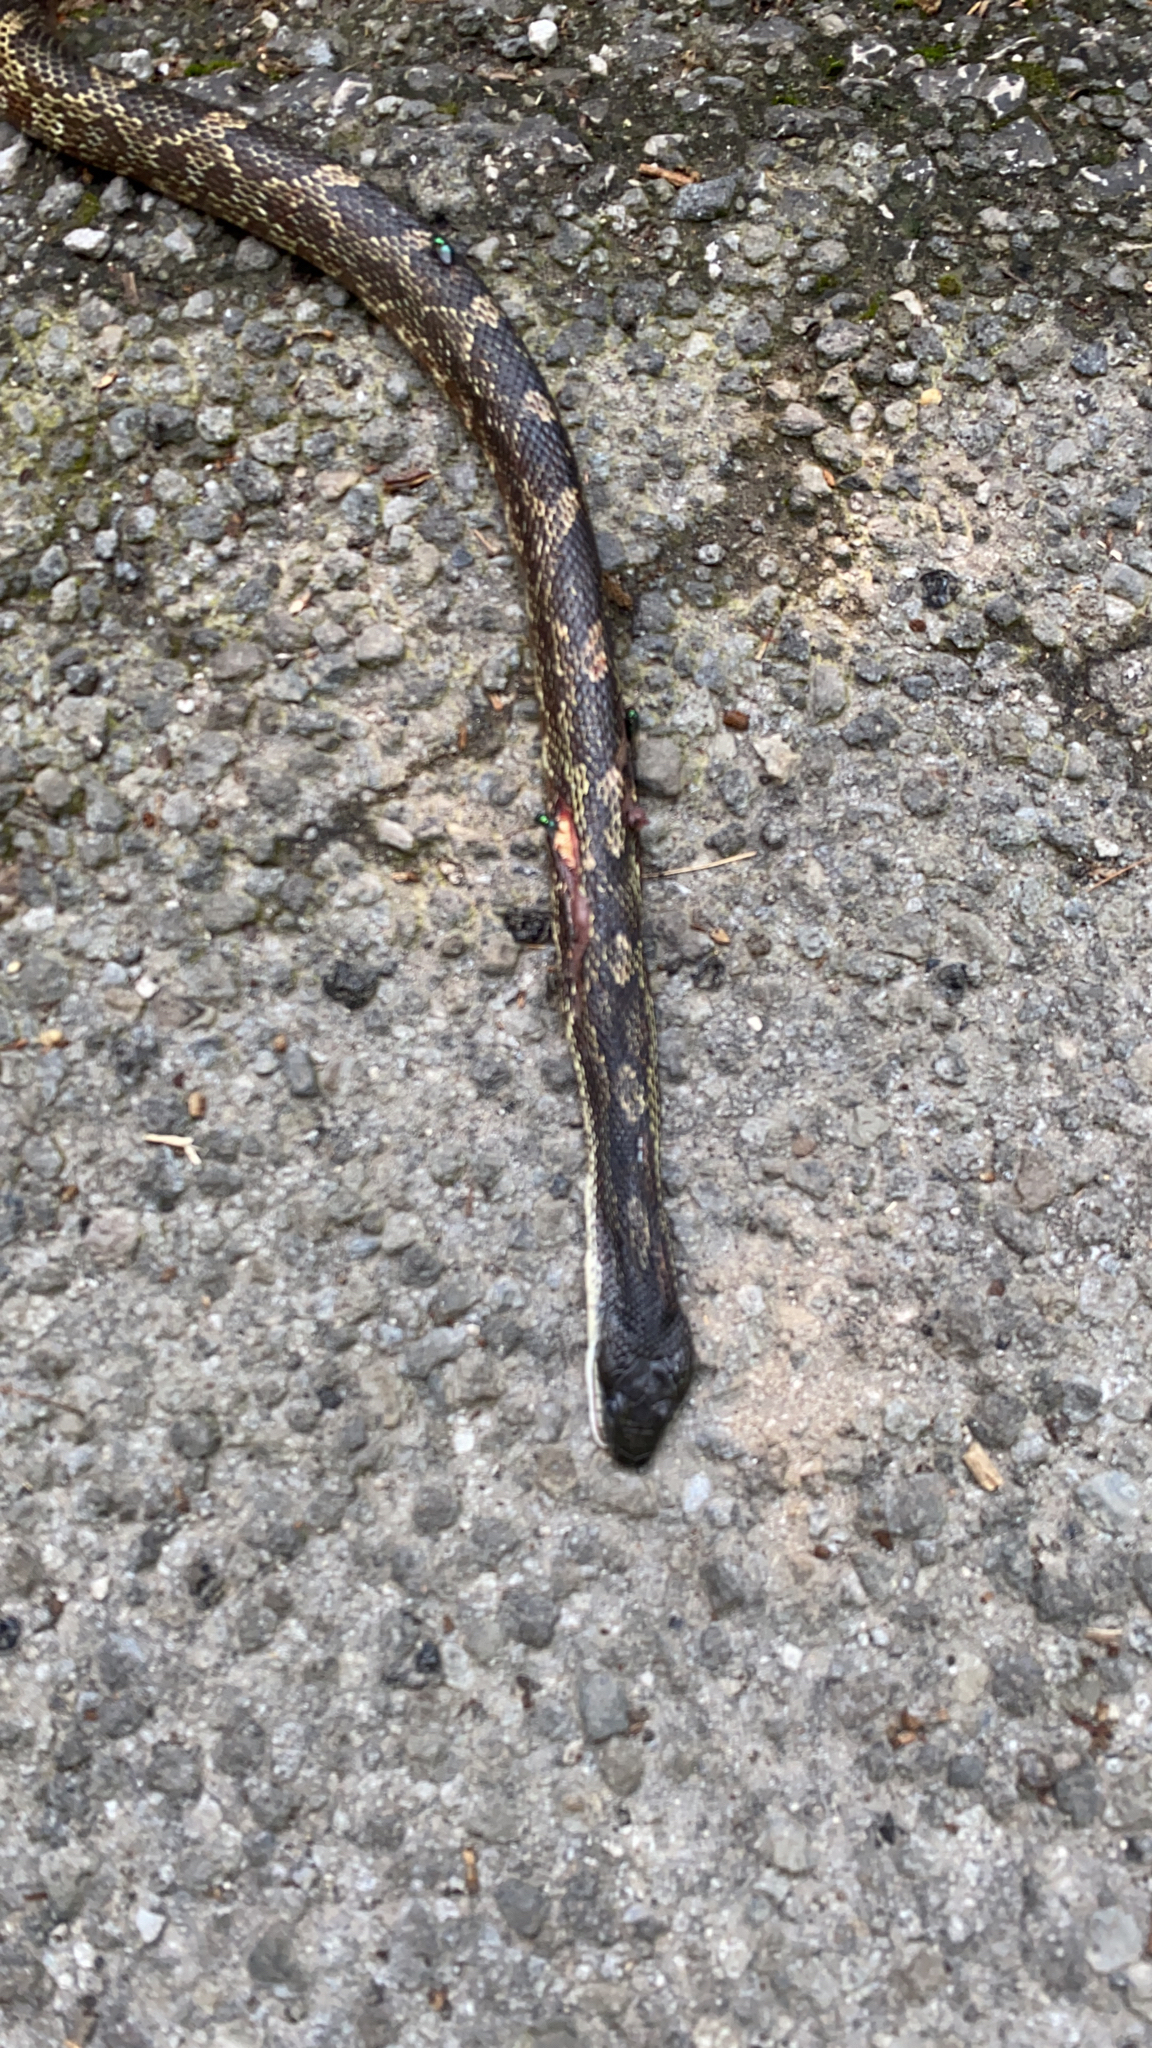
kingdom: Animalia
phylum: Chordata
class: Squamata
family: Colubridae
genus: Pantherophis
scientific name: Pantherophis spiloides
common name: Gray rat snake
